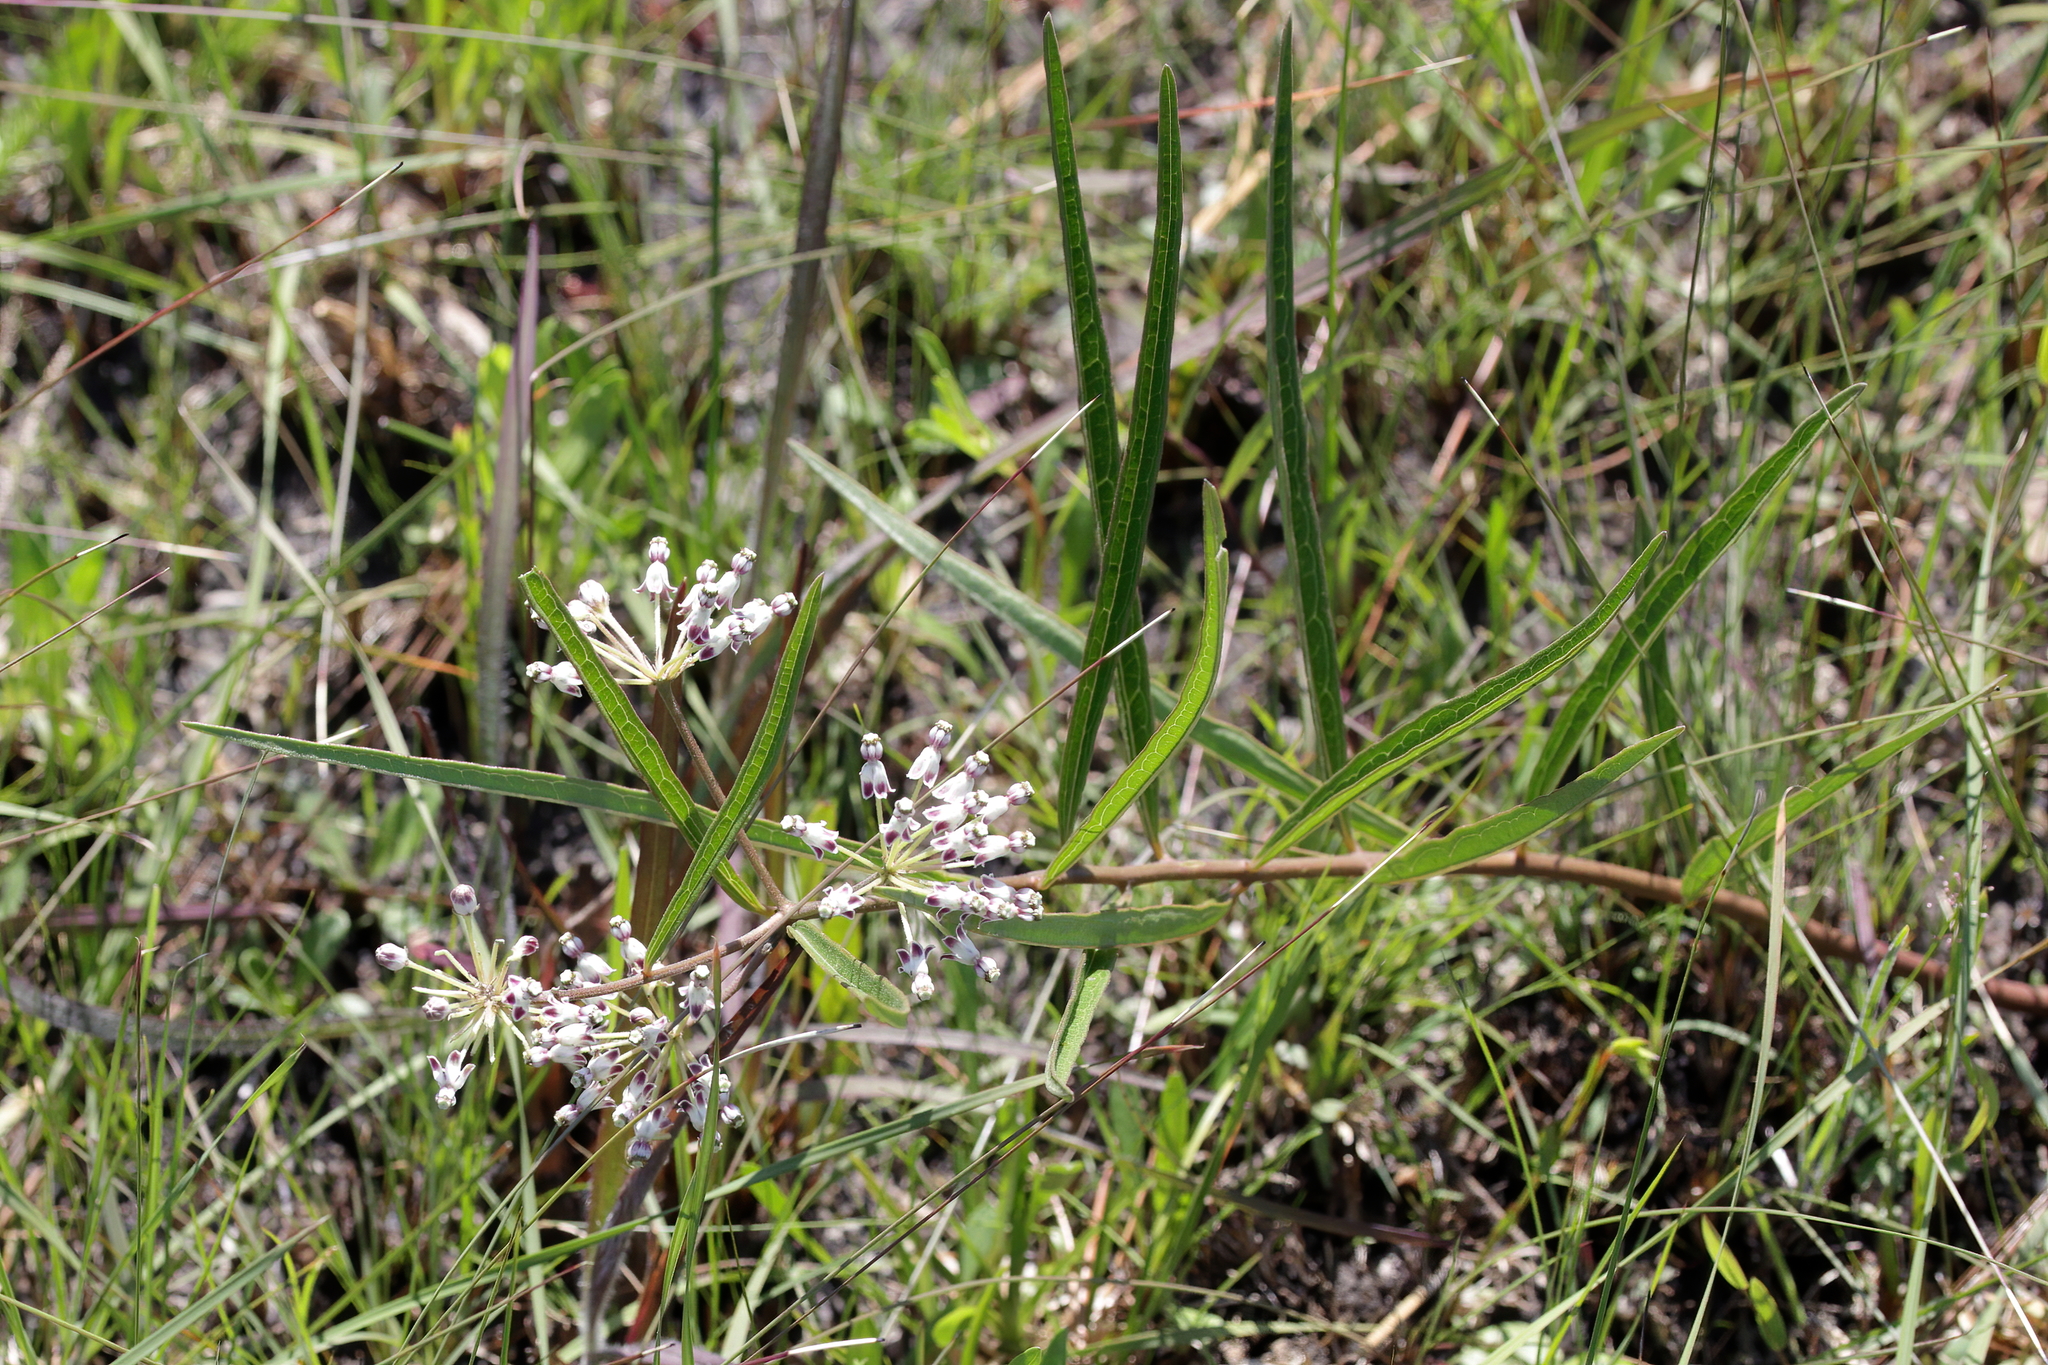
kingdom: Plantae
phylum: Tracheophyta
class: Magnoliopsida
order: Gentianales
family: Apocynaceae
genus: Asclepias
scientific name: Asclepias longifolia
